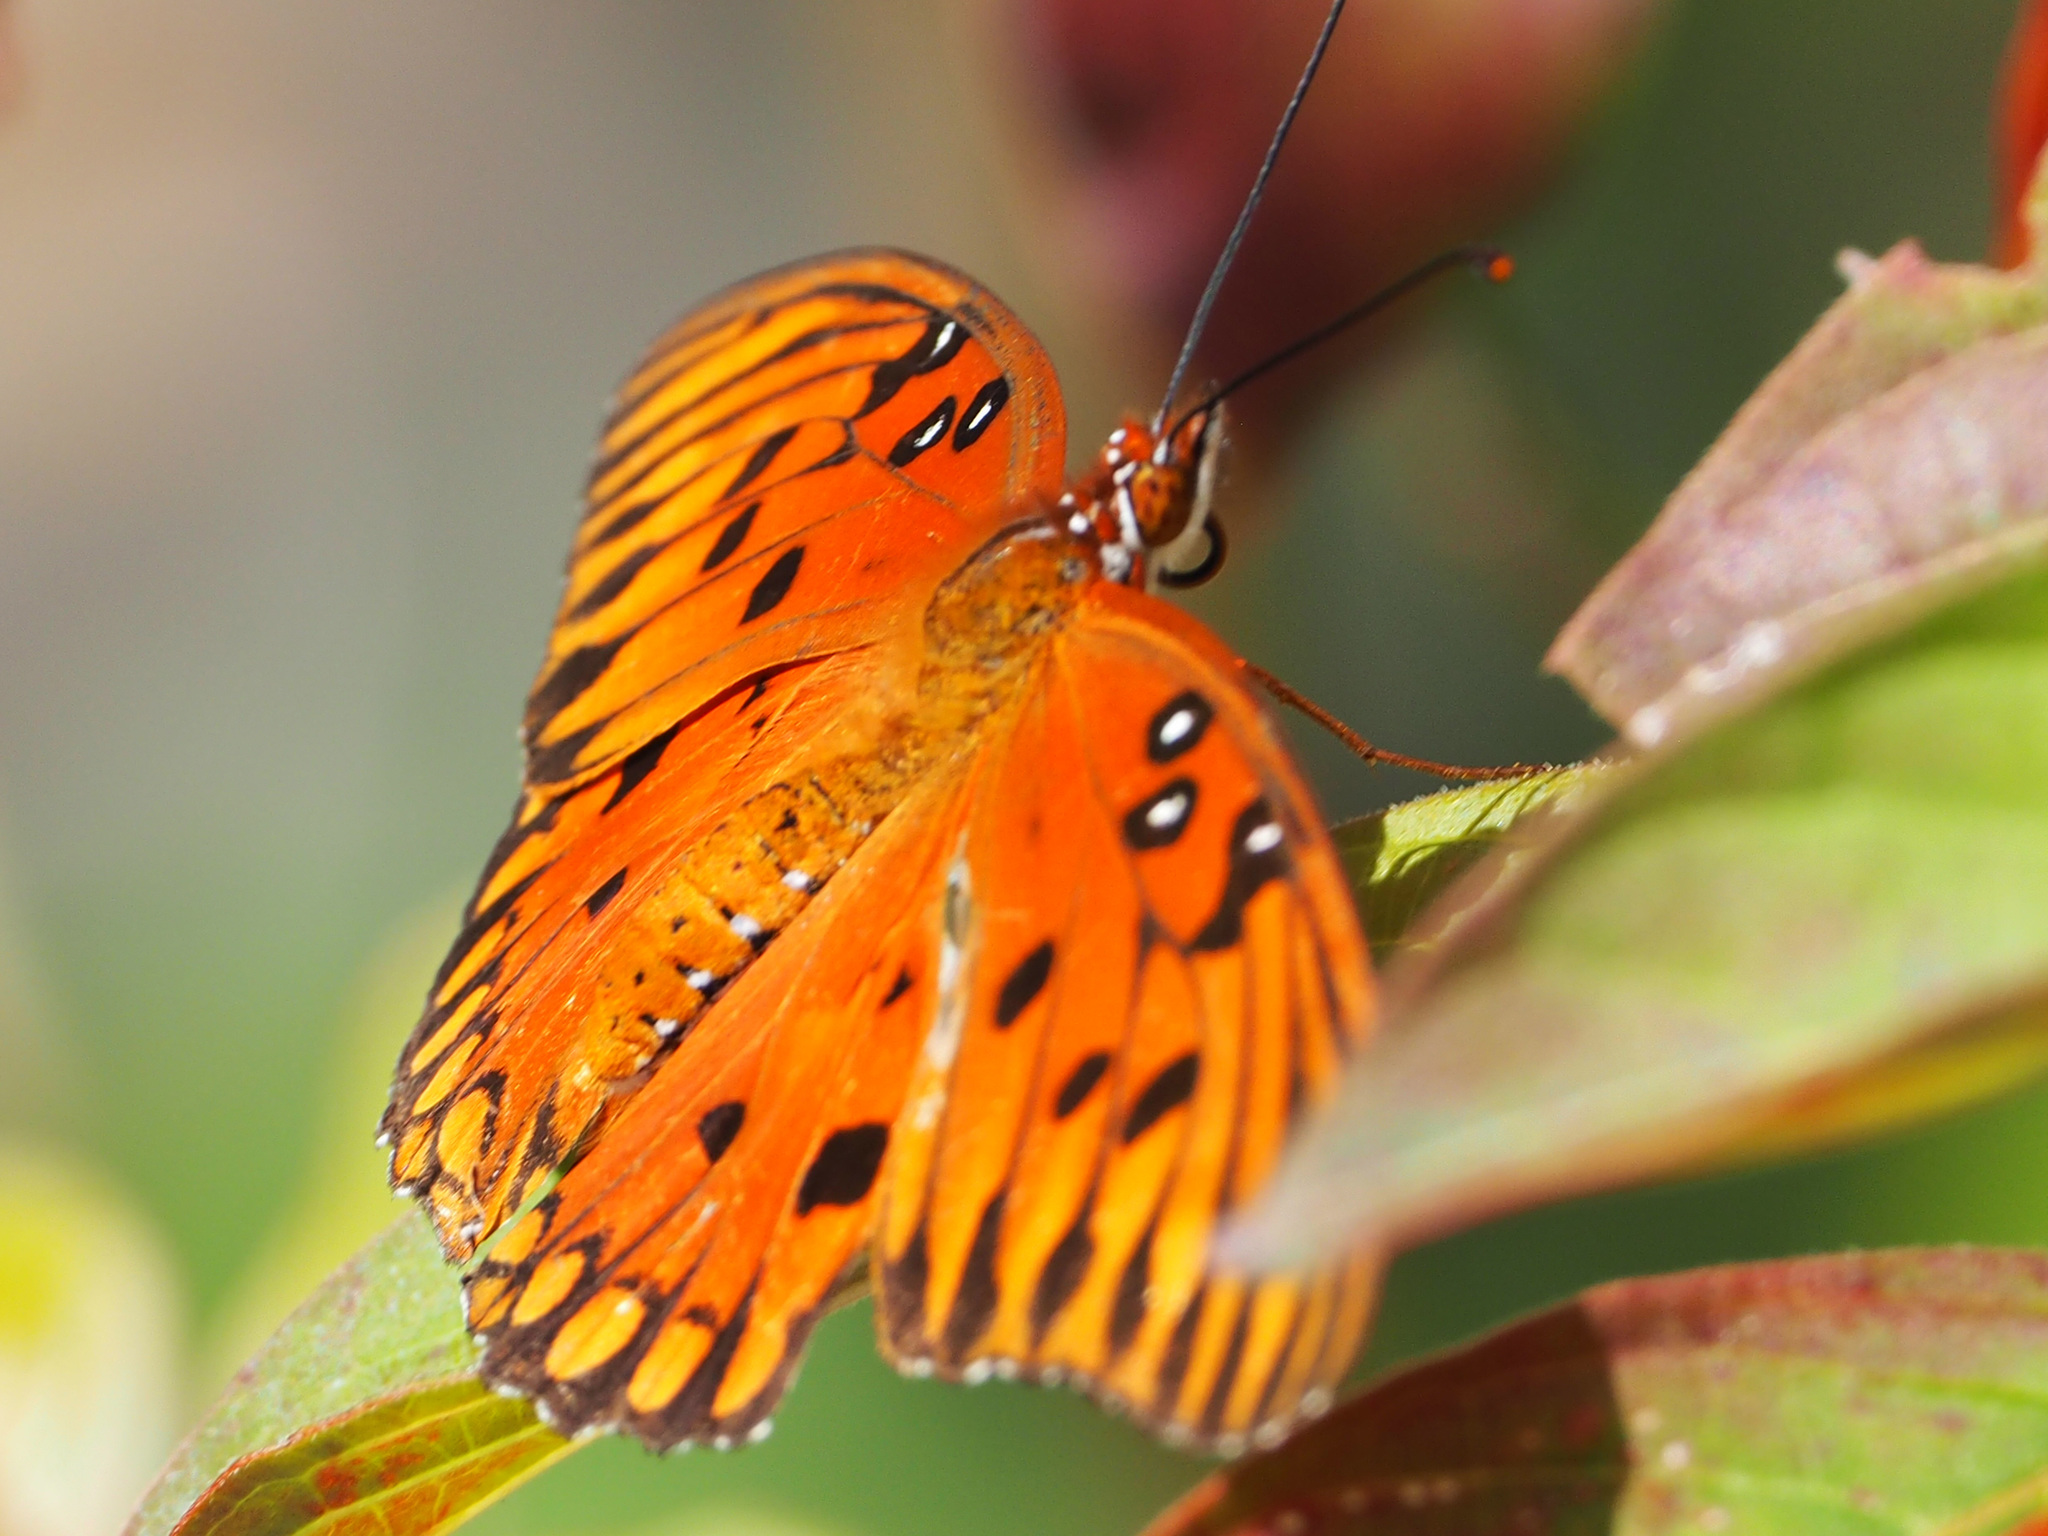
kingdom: Animalia
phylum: Arthropoda
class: Insecta
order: Lepidoptera
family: Nymphalidae
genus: Dione
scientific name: Dione vanillae
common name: Gulf fritillary
